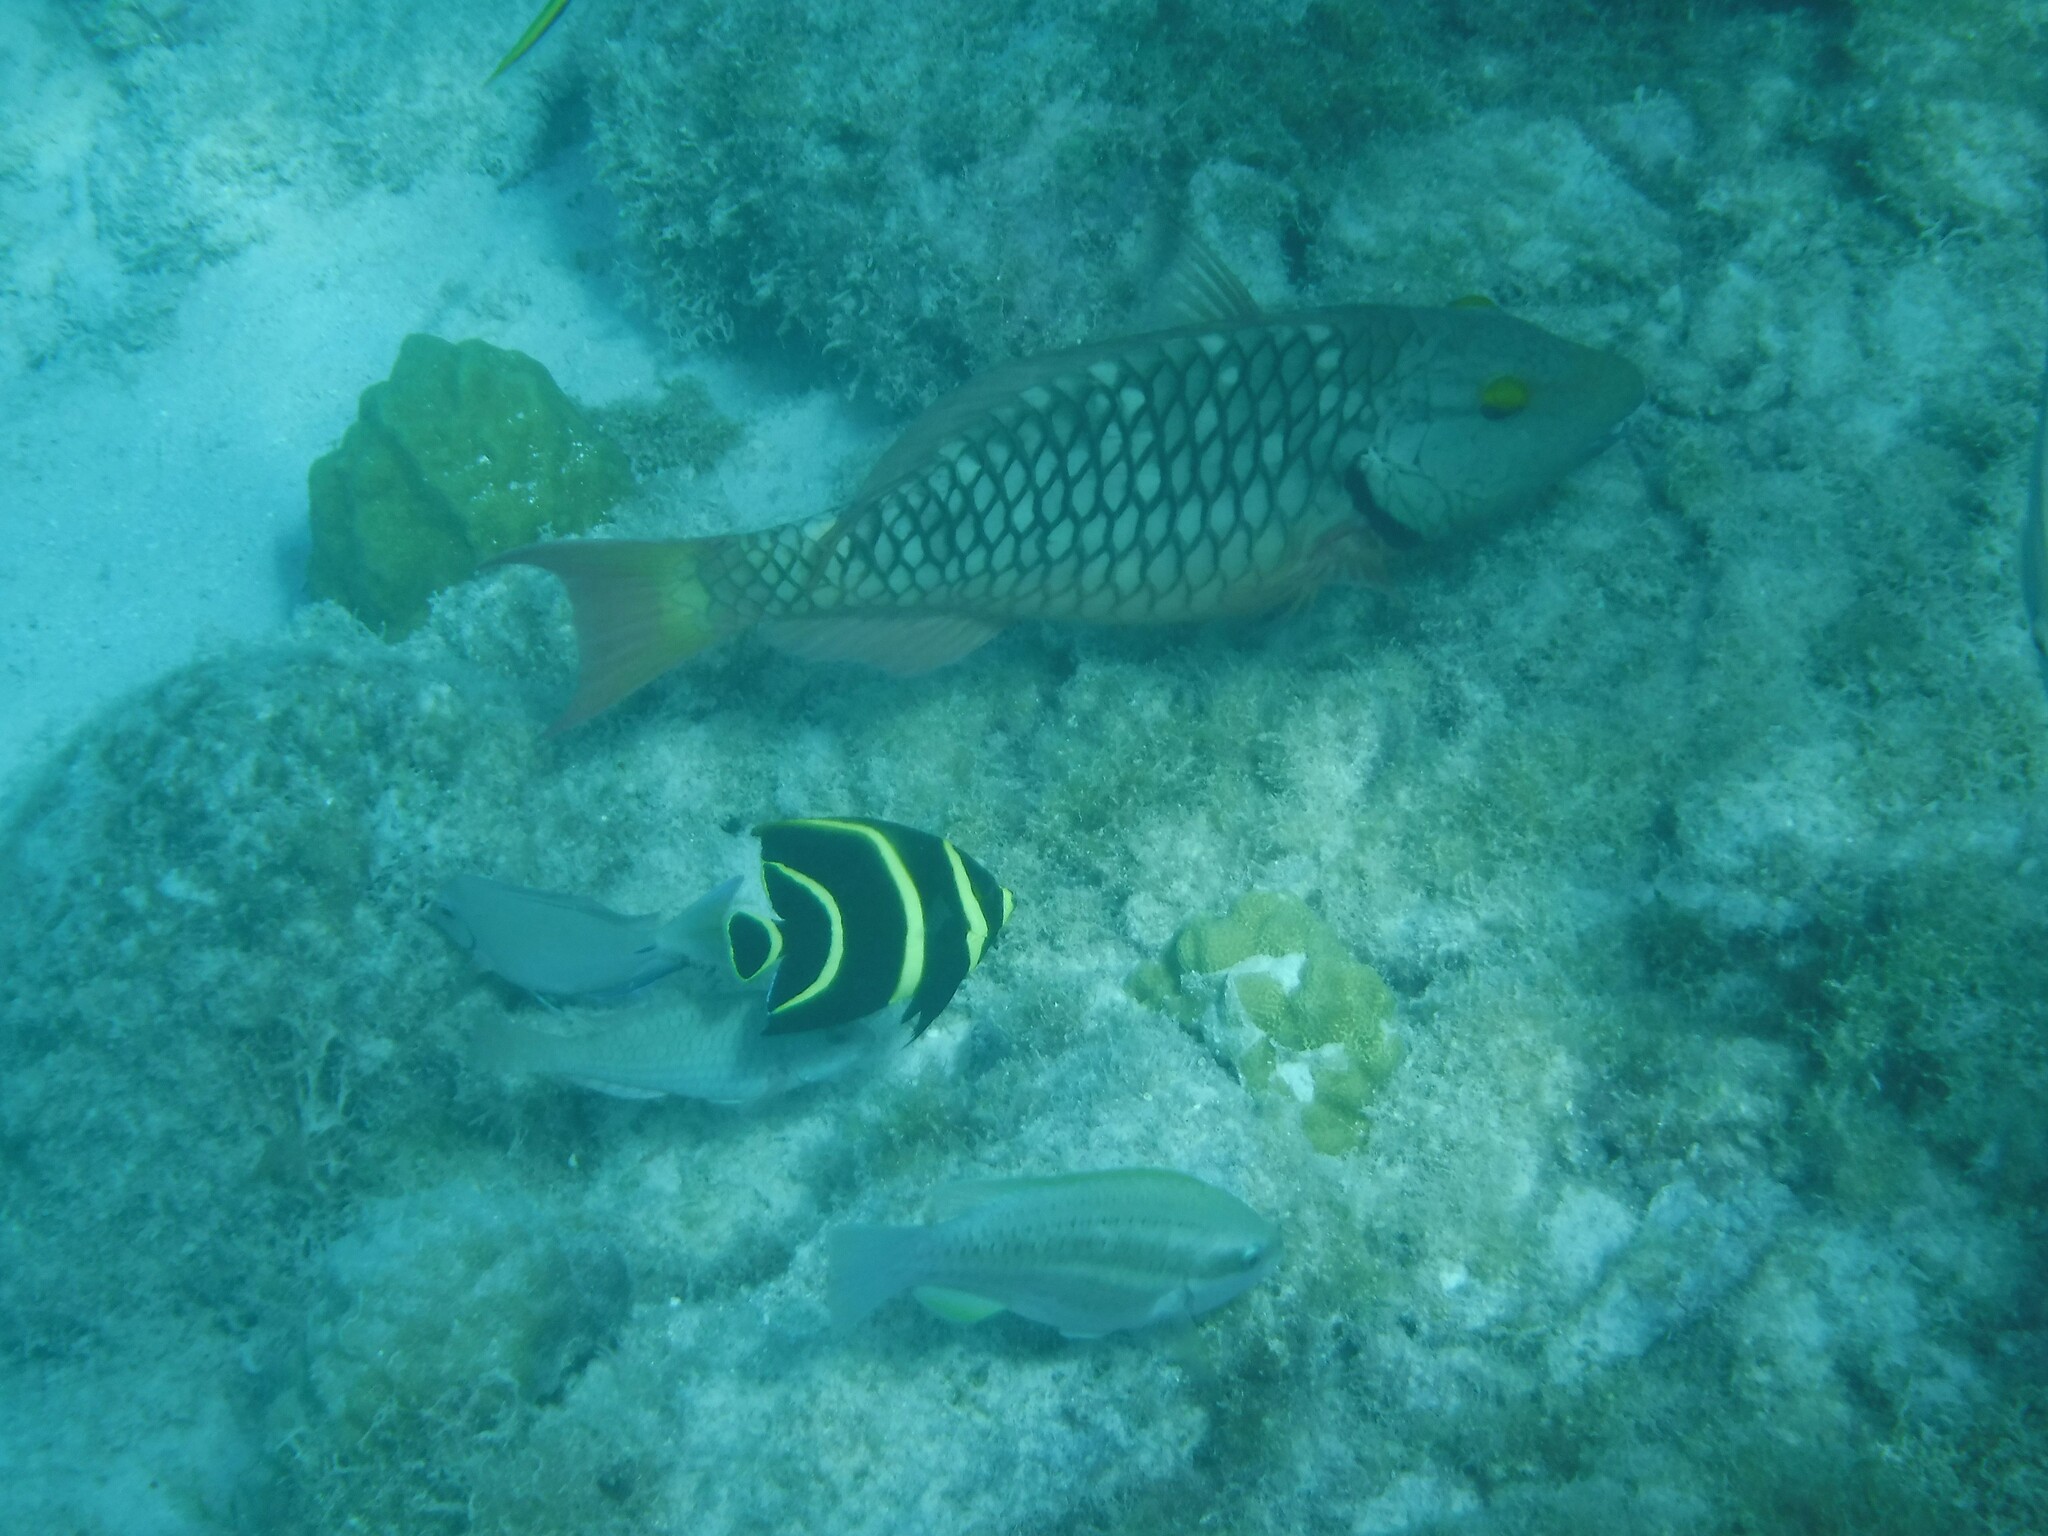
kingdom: Animalia
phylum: Chordata
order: Perciformes
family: Pomacanthidae
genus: Pomacanthus
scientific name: Pomacanthus paru
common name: French angelfish
